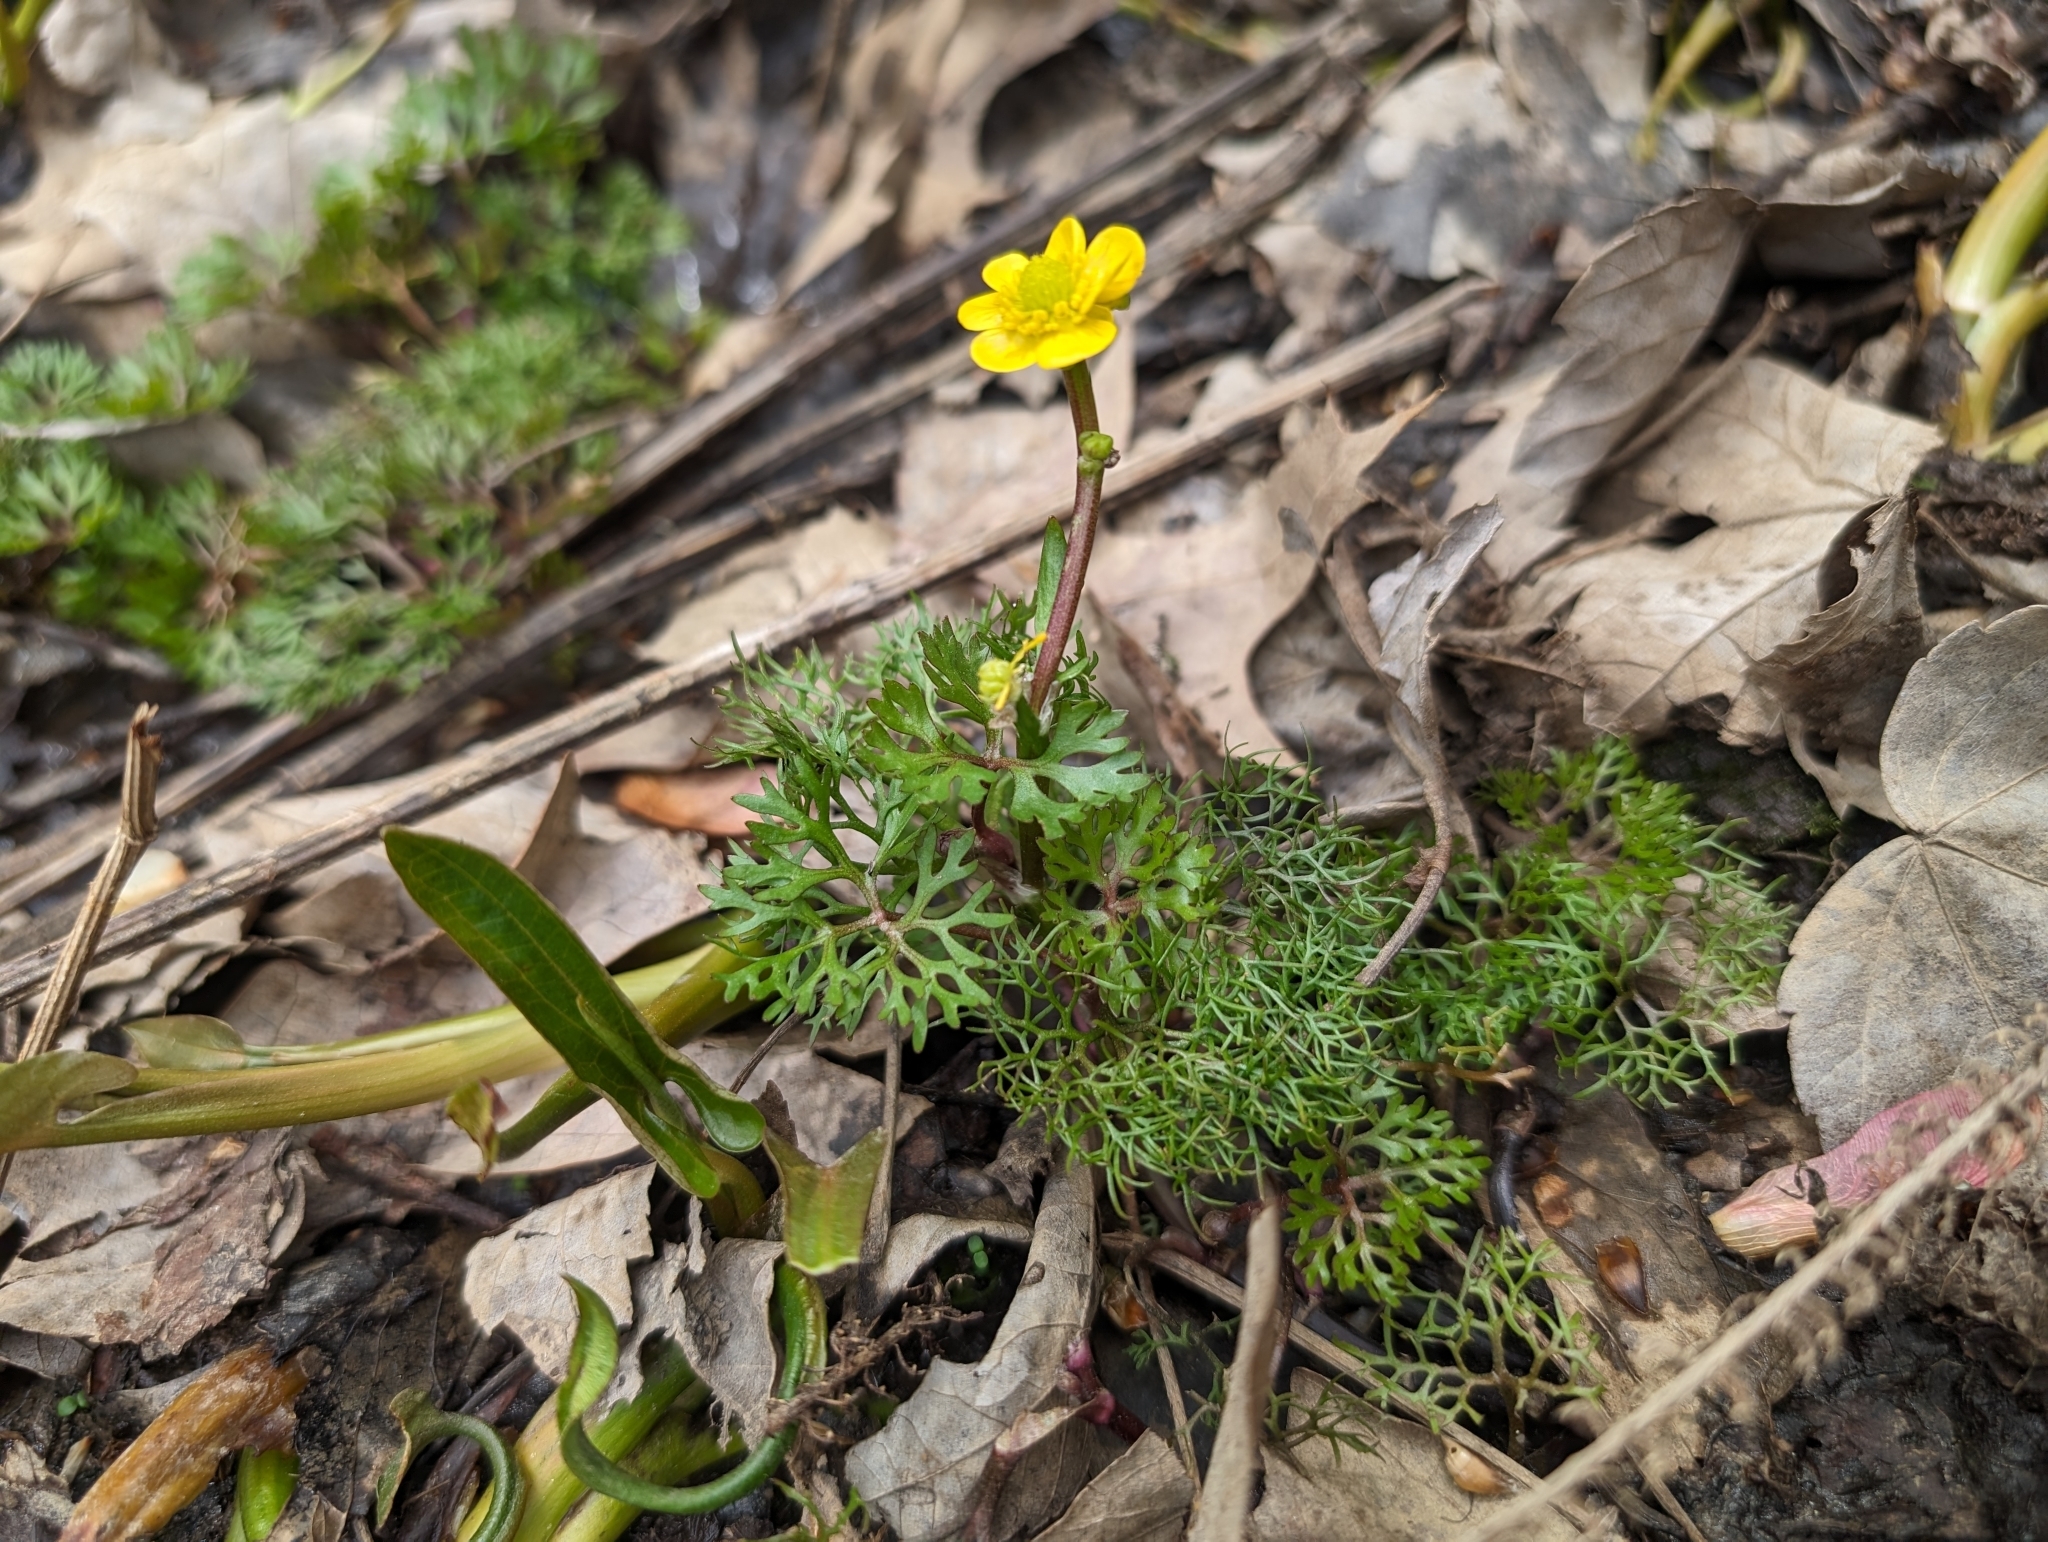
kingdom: Plantae
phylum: Tracheophyta
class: Magnoliopsida
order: Ranunculales
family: Ranunculaceae
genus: Ranunculus
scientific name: Ranunculus flabellaris
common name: Yellow water-crowfoot
